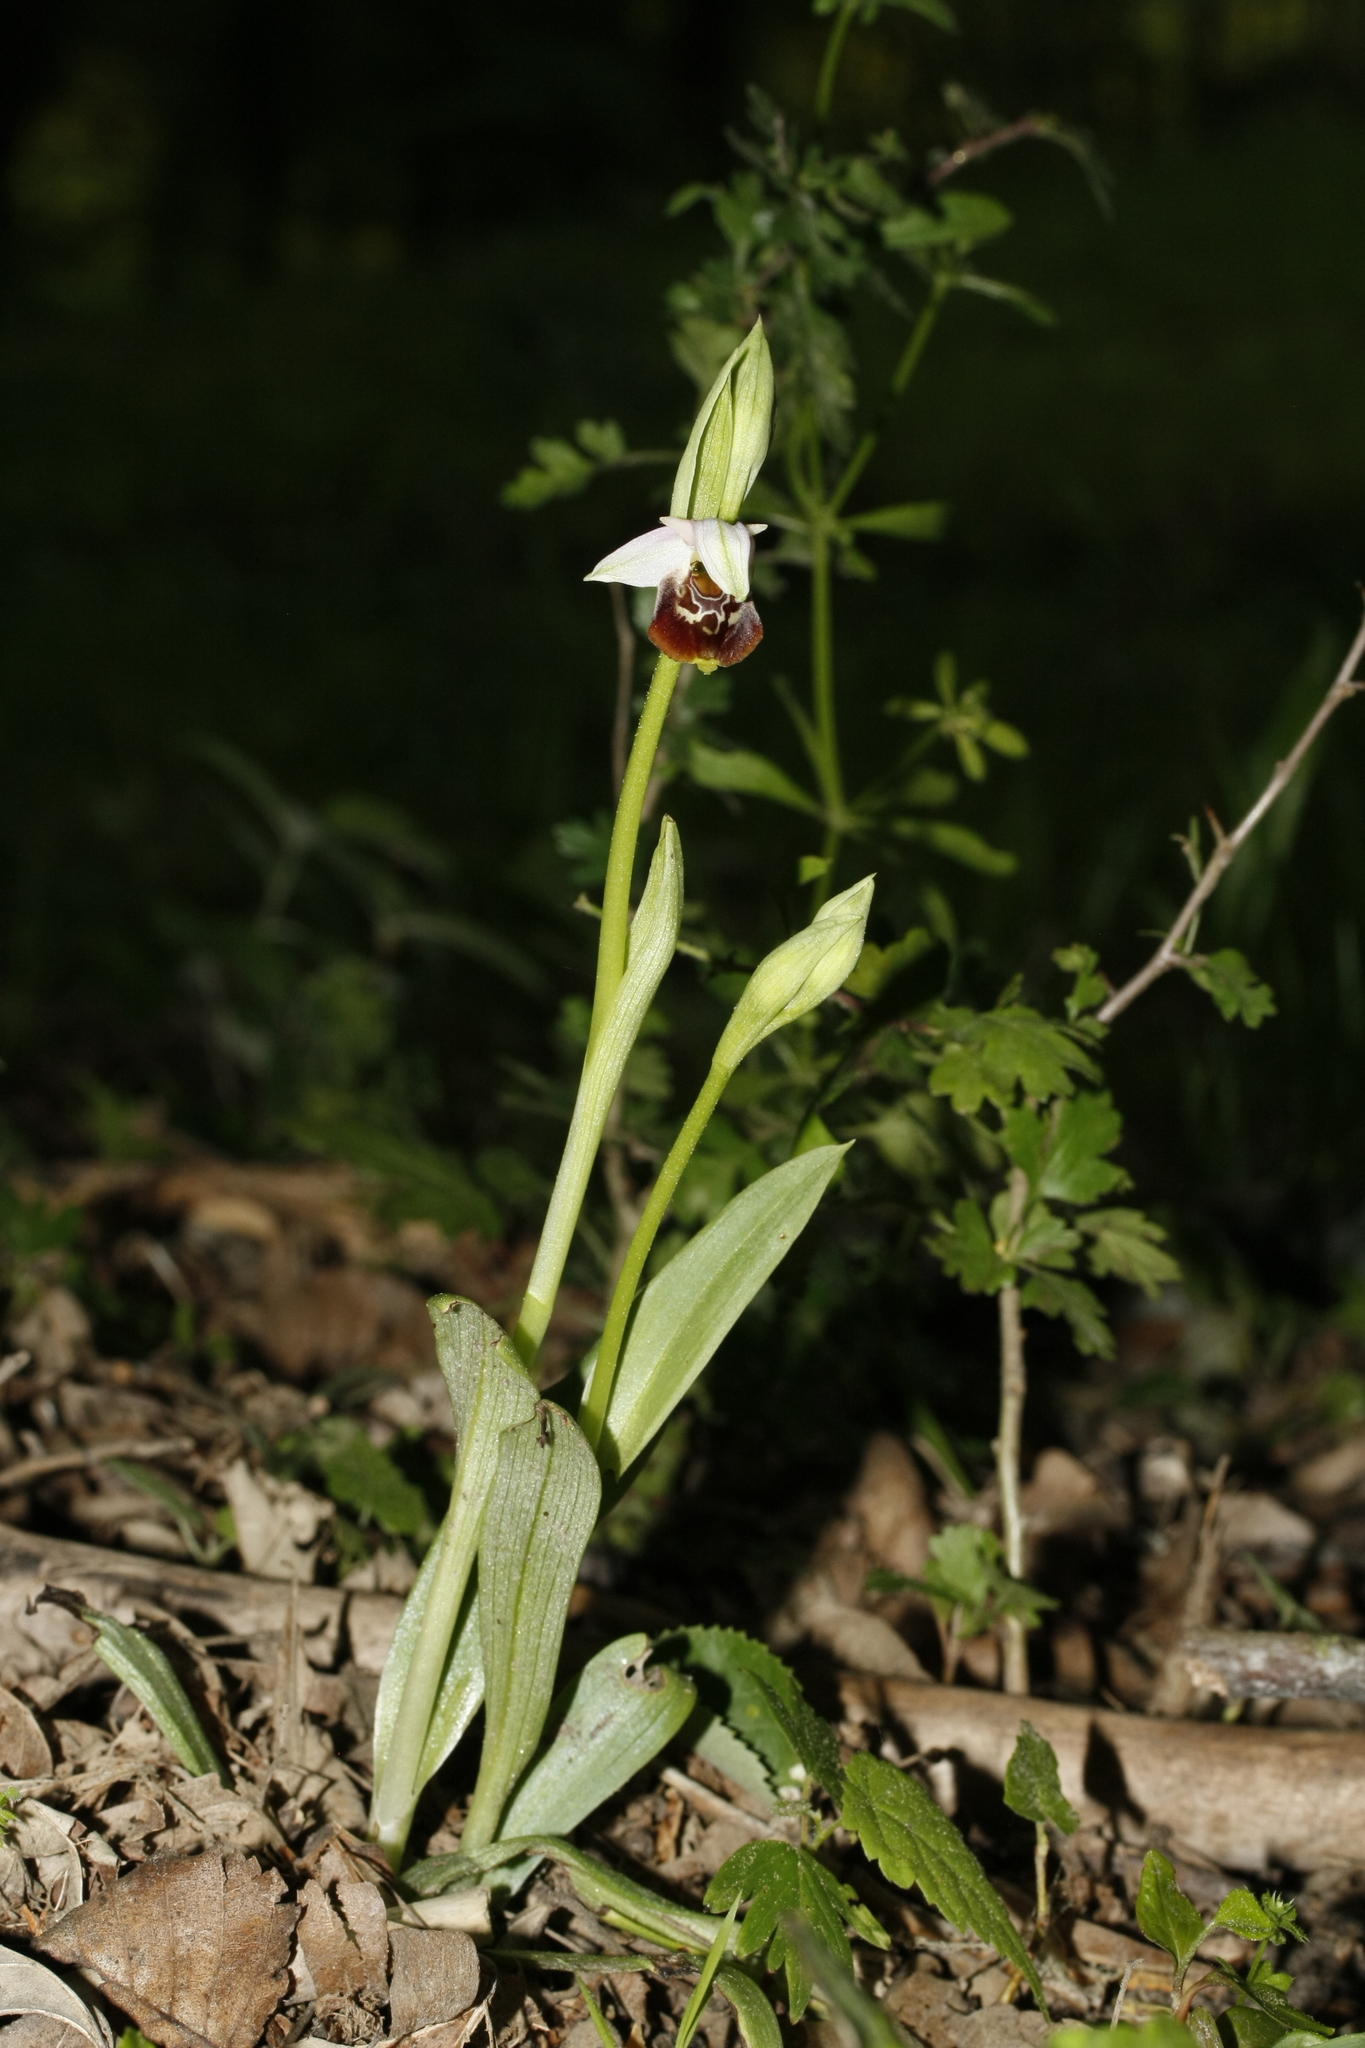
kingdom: Plantae
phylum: Tracheophyta
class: Liliopsida
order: Asparagales
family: Orchidaceae
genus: Ophrys
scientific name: Ophrys holosericea
